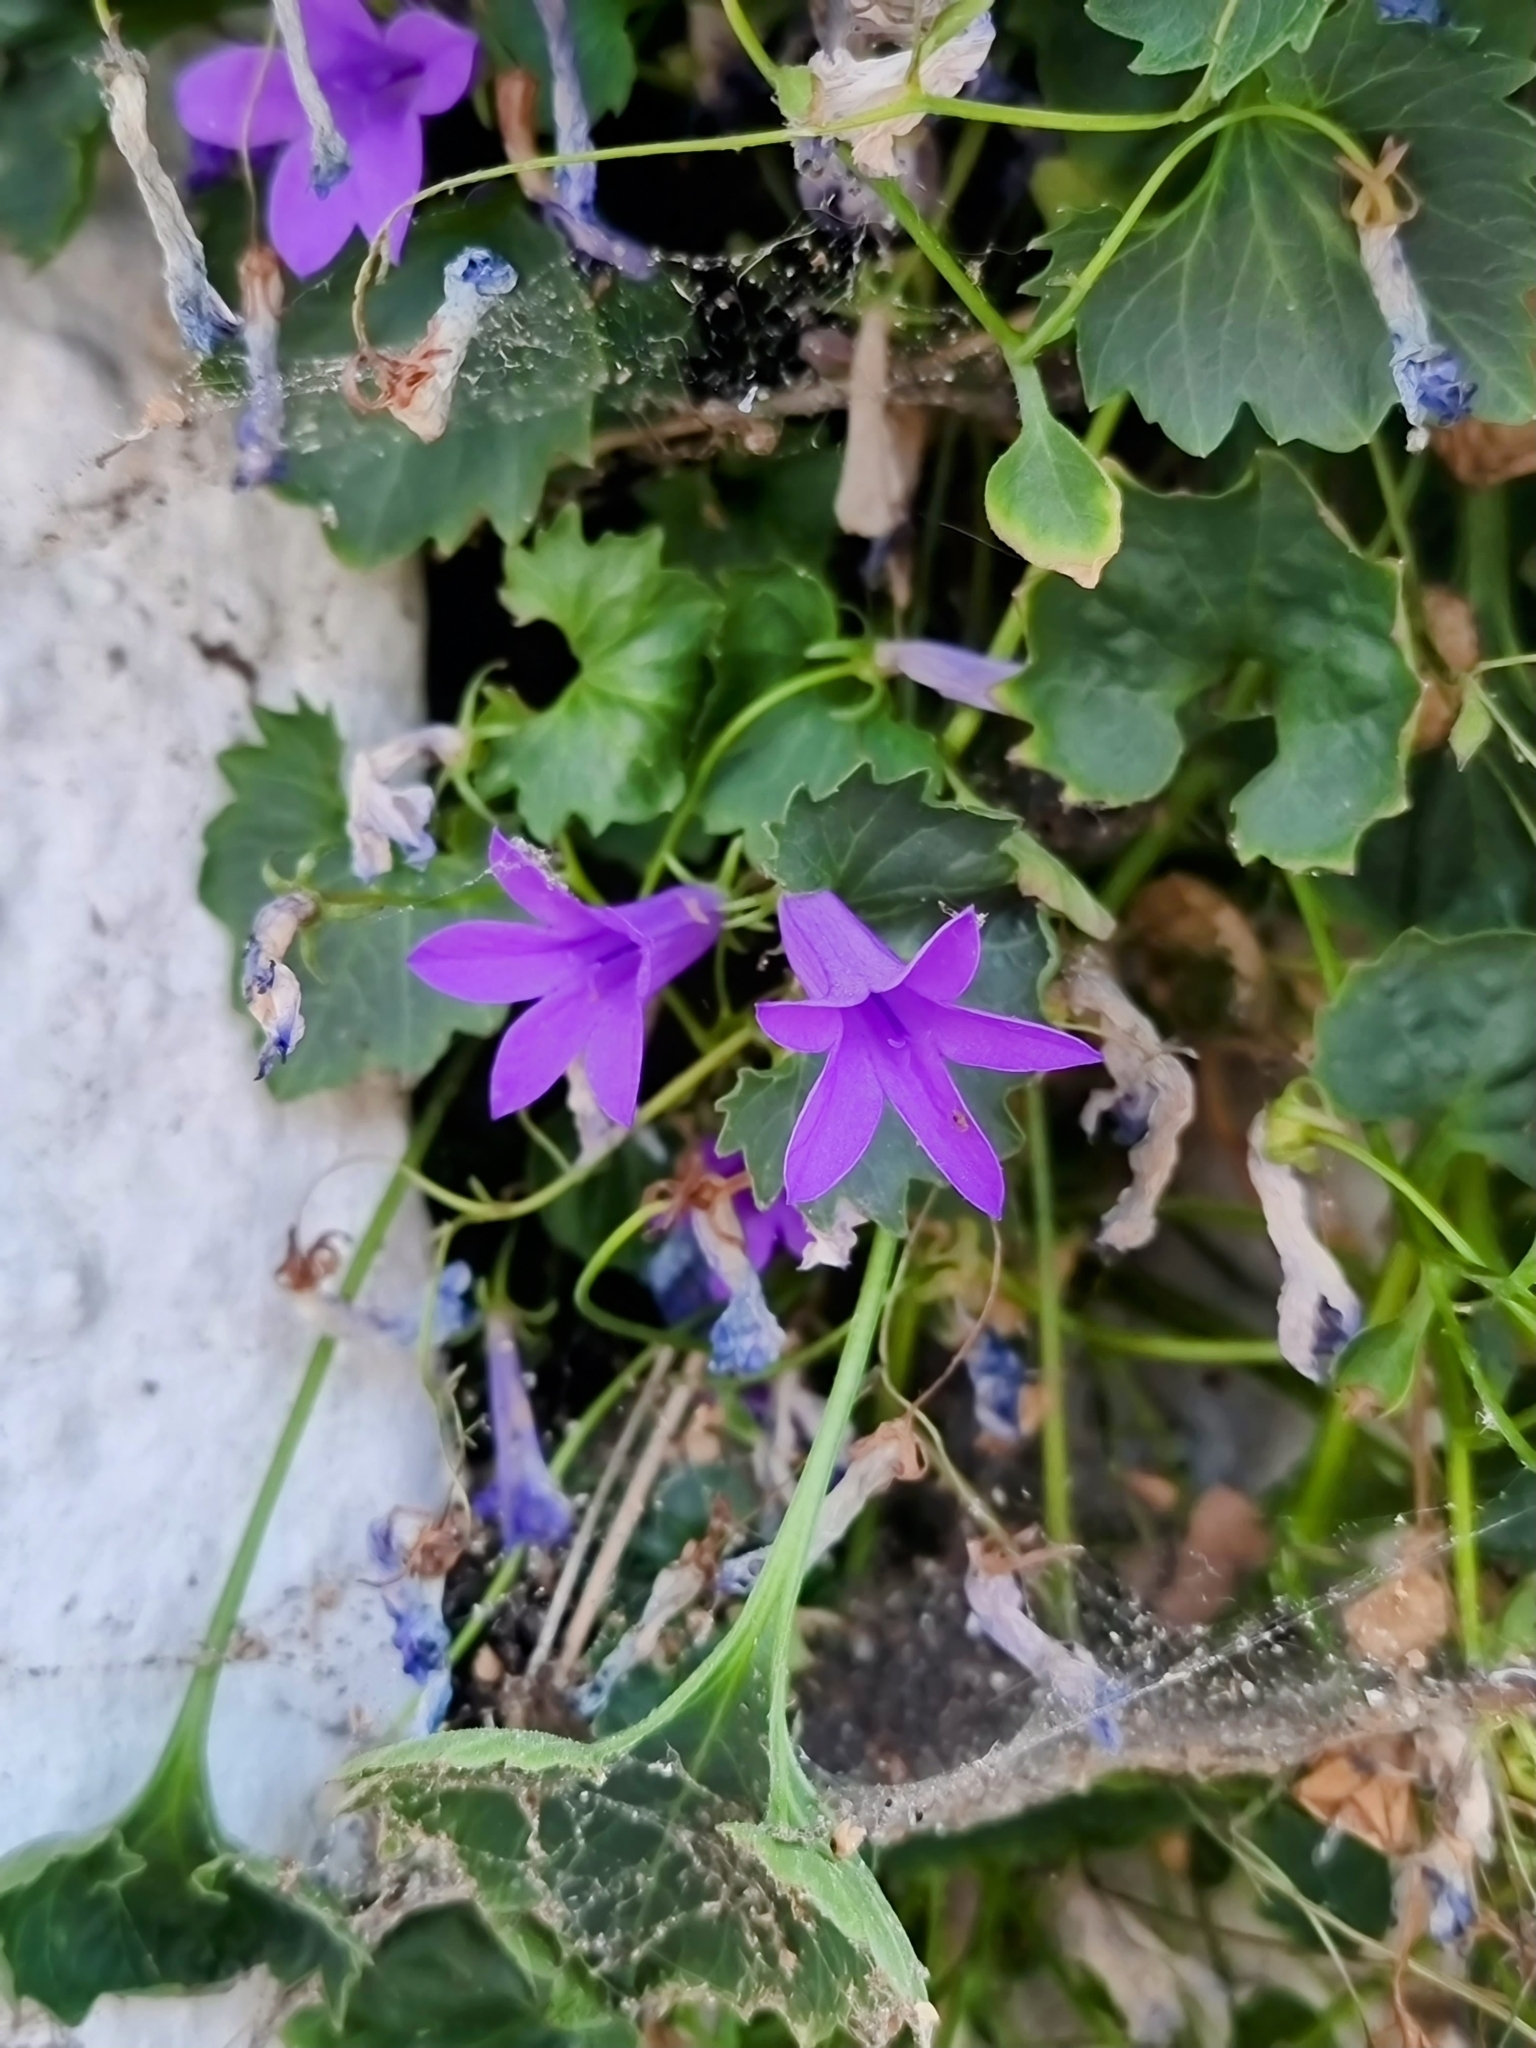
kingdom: Plantae
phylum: Tracheophyta
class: Magnoliopsida
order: Asterales
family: Campanulaceae
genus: Campanula
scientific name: Campanula portenschlagiana
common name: Adria bellflower
